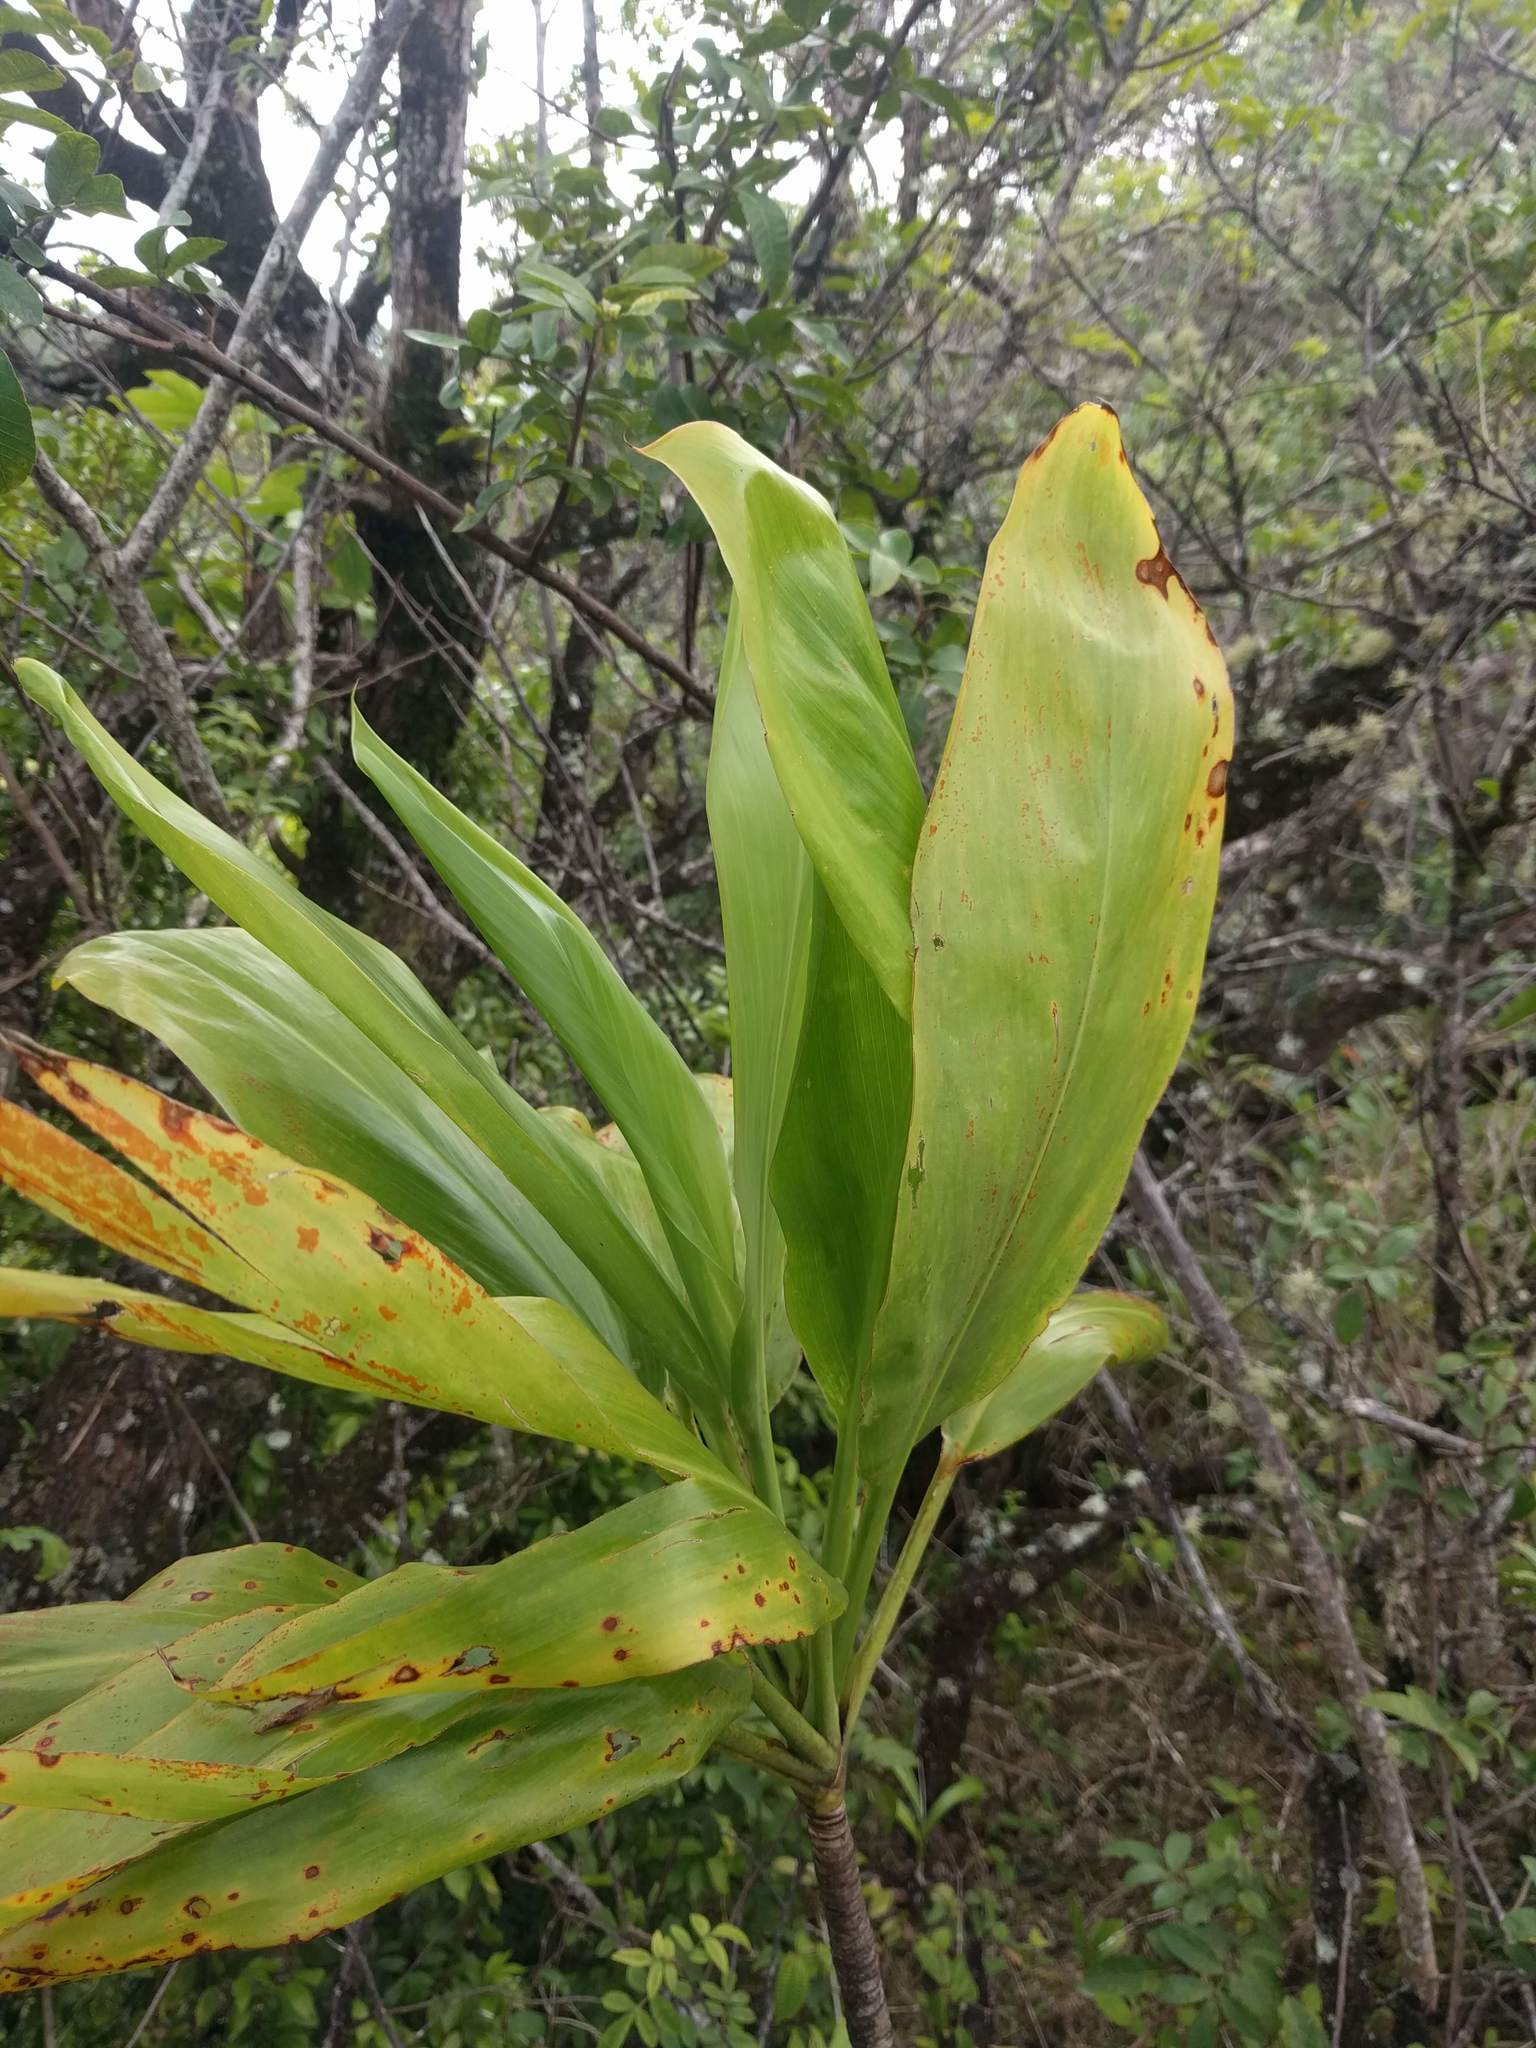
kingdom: Plantae
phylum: Tracheophyta
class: Liliopsida
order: Asparagales
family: Asparagaceae
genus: Cordyline
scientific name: Cordyline fruticosa
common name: Good-luck-plant
